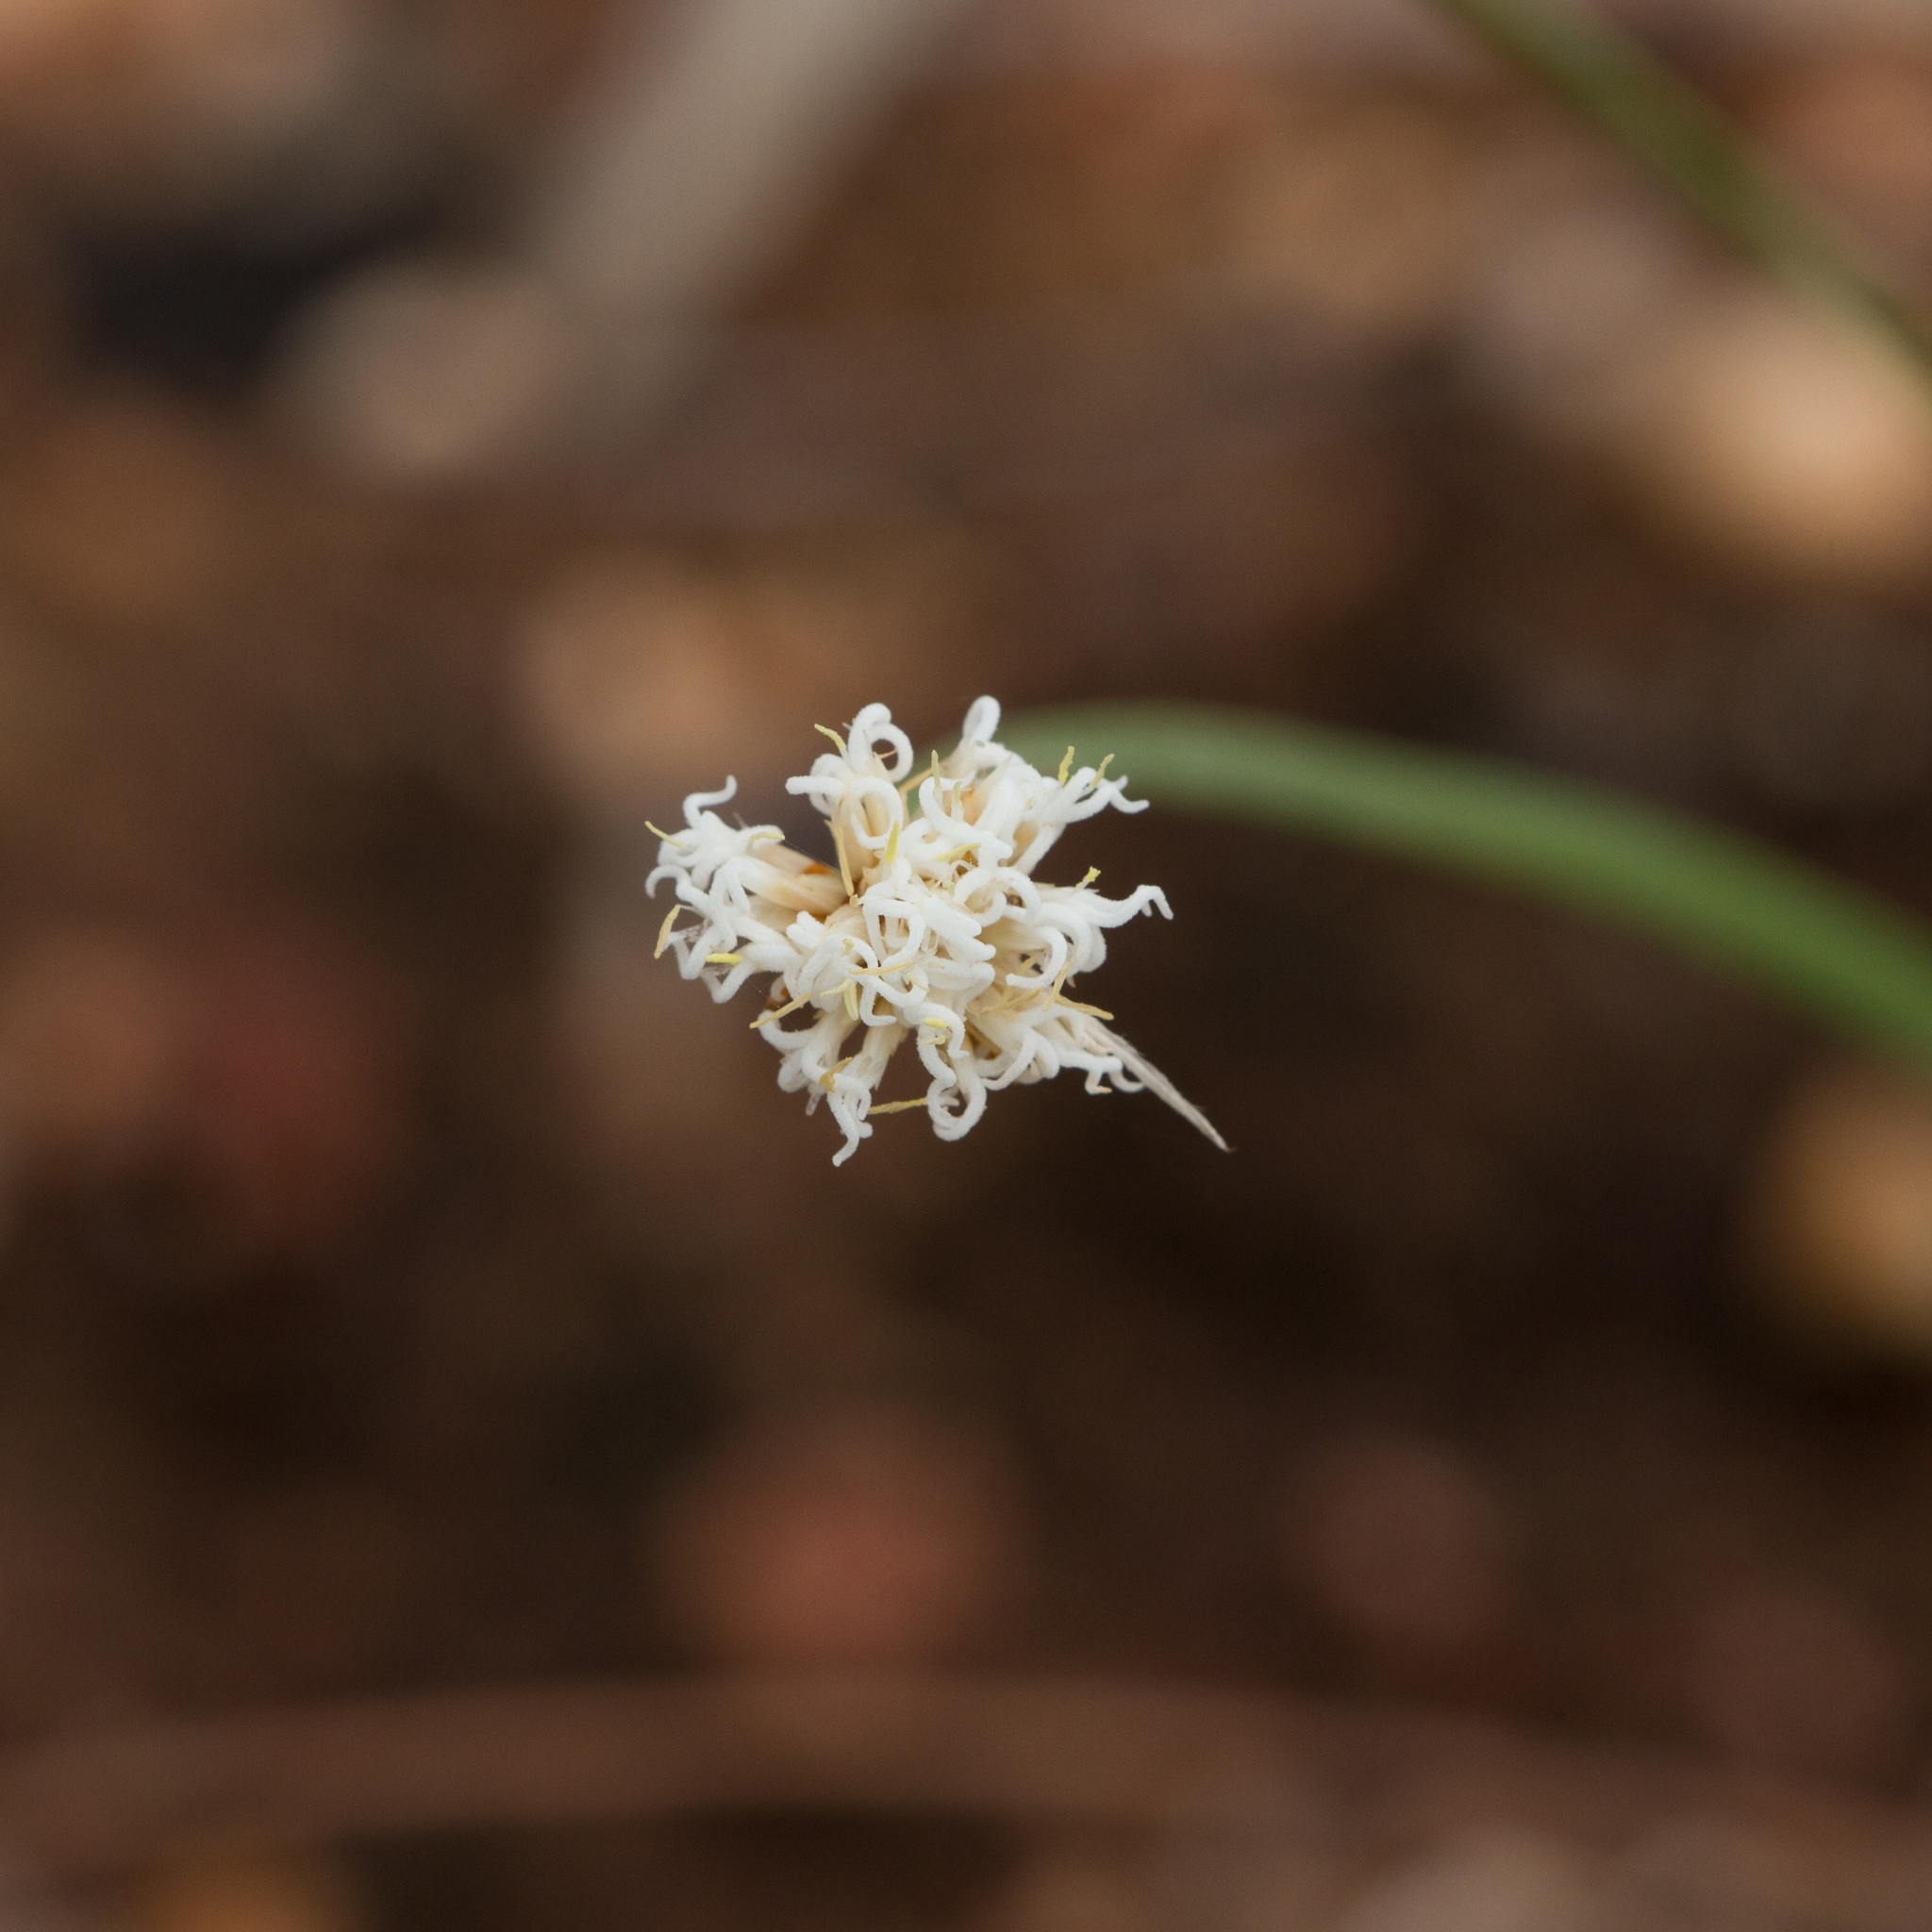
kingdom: Plantae
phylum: Tracheophyta
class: Liliopsida
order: Poales
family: Cyperaceae
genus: Arthrostylis
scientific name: Arthrostylis aphylla
